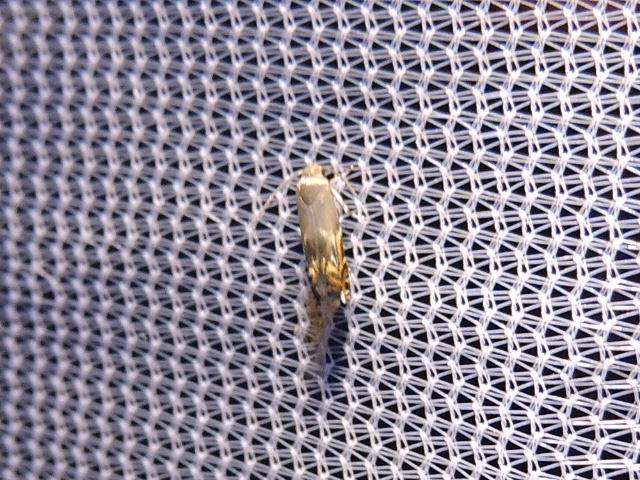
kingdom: Animalia
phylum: Arthropoda
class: Insecta
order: Lepidoptera
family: Gelechiidae
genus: Calliprora
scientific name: Calliprora sexstrigella
